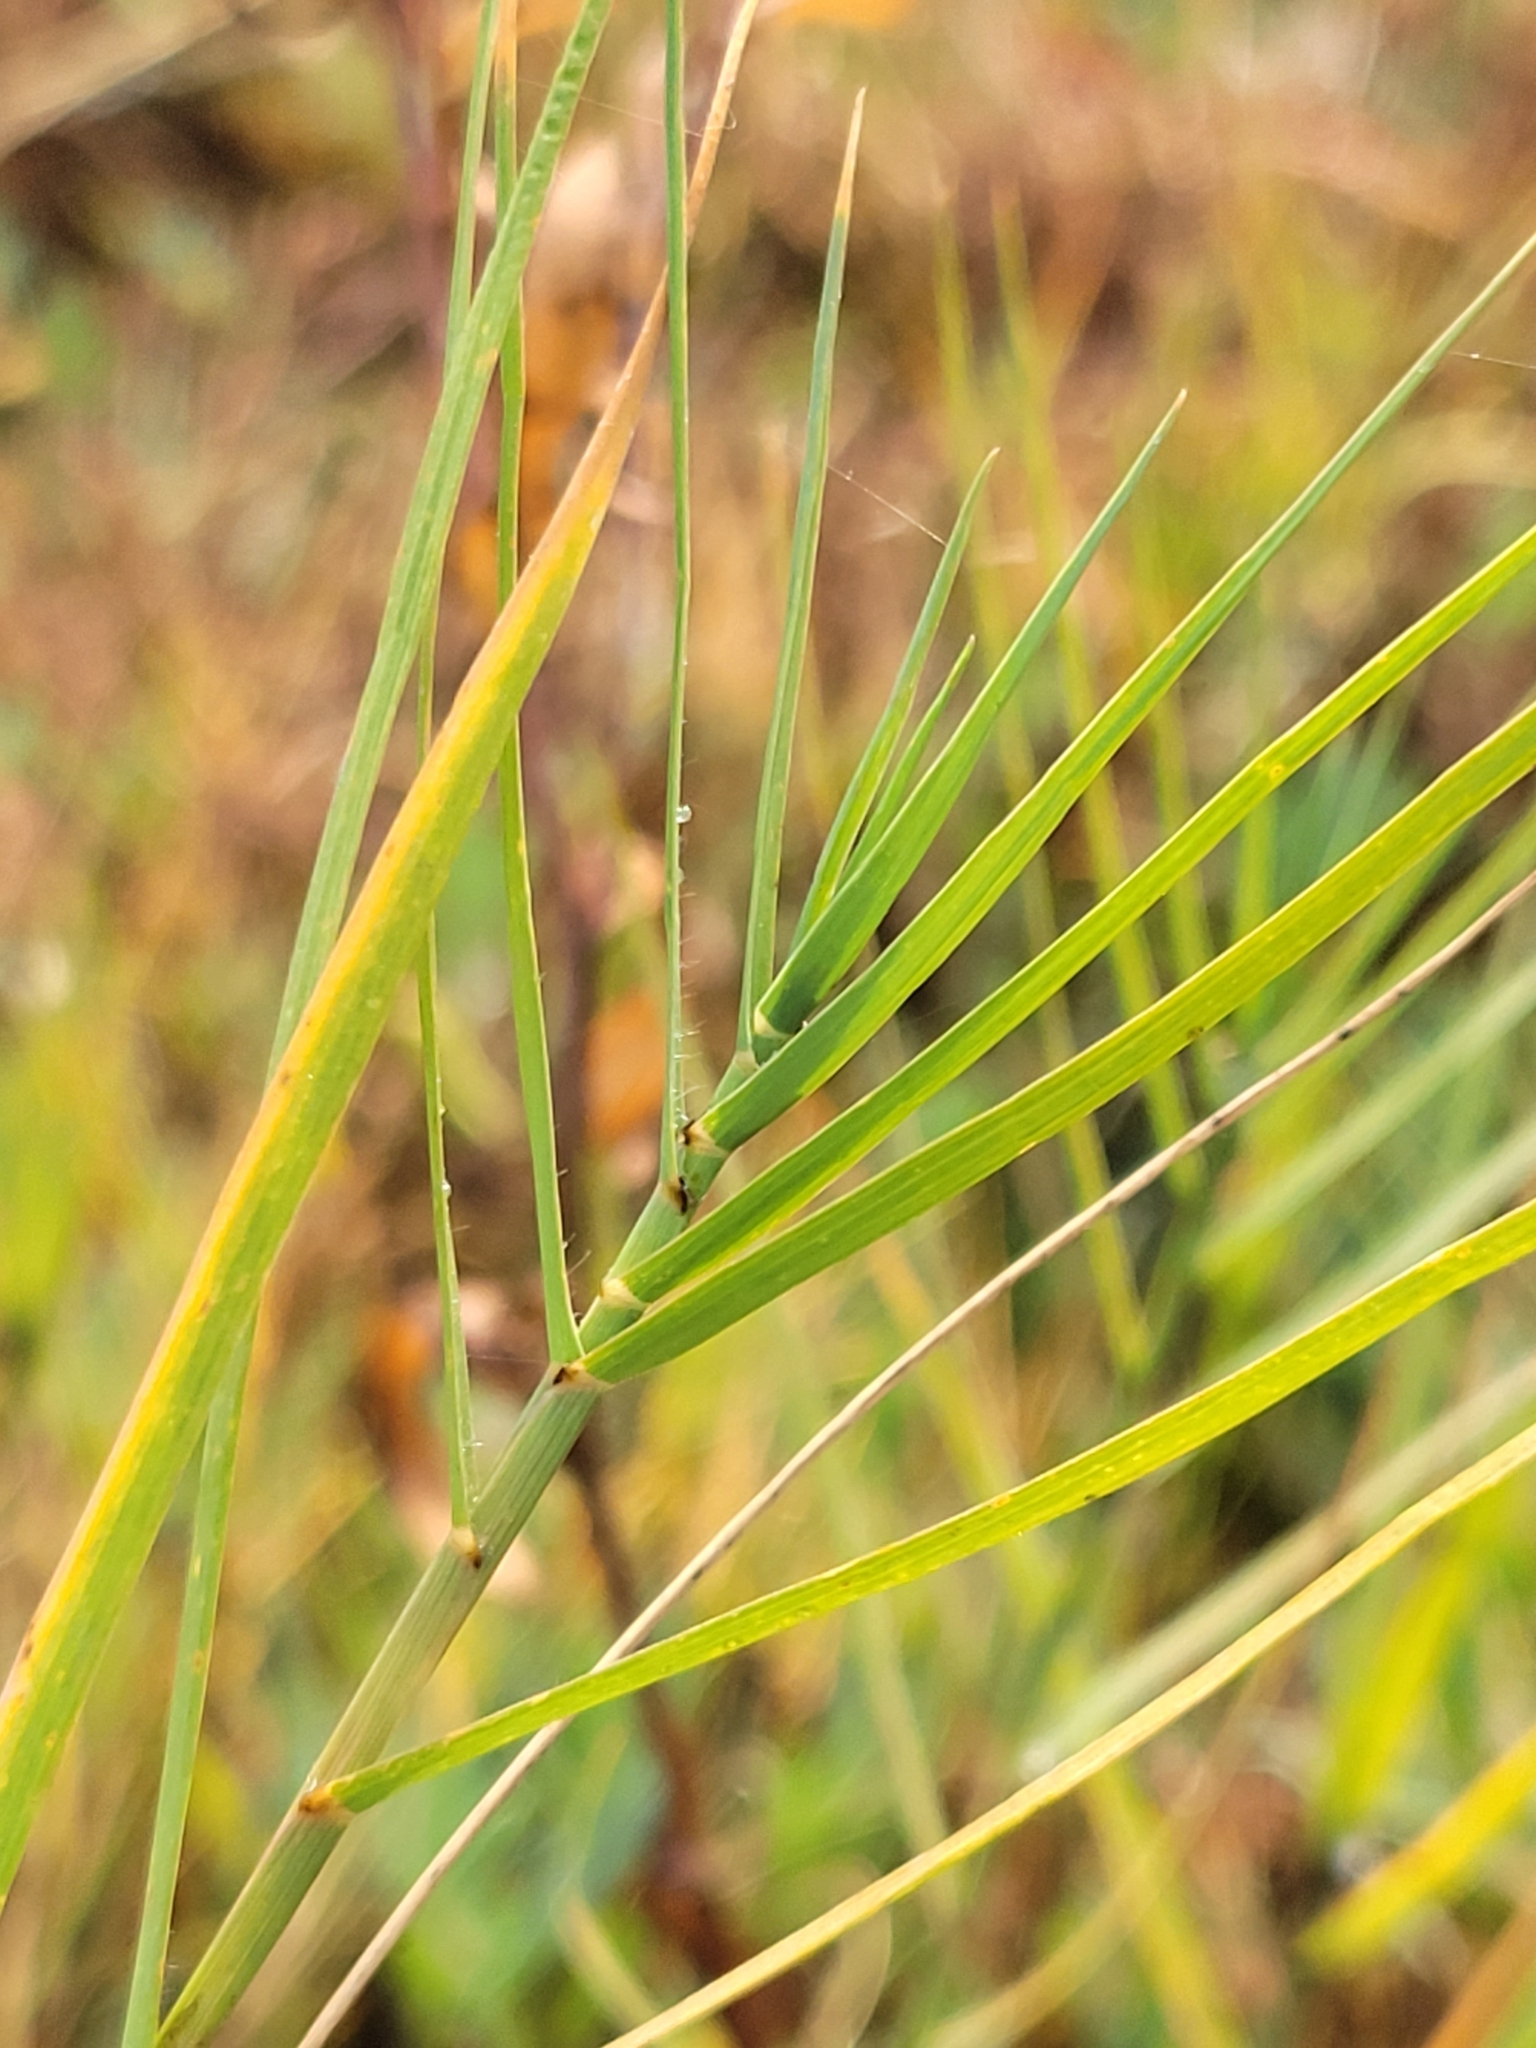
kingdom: Plantae
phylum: Tracheophyta
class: Liliopsida
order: Poales
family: Poaceae
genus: Distichlis
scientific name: Distichlis spicata
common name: Saltgrass
